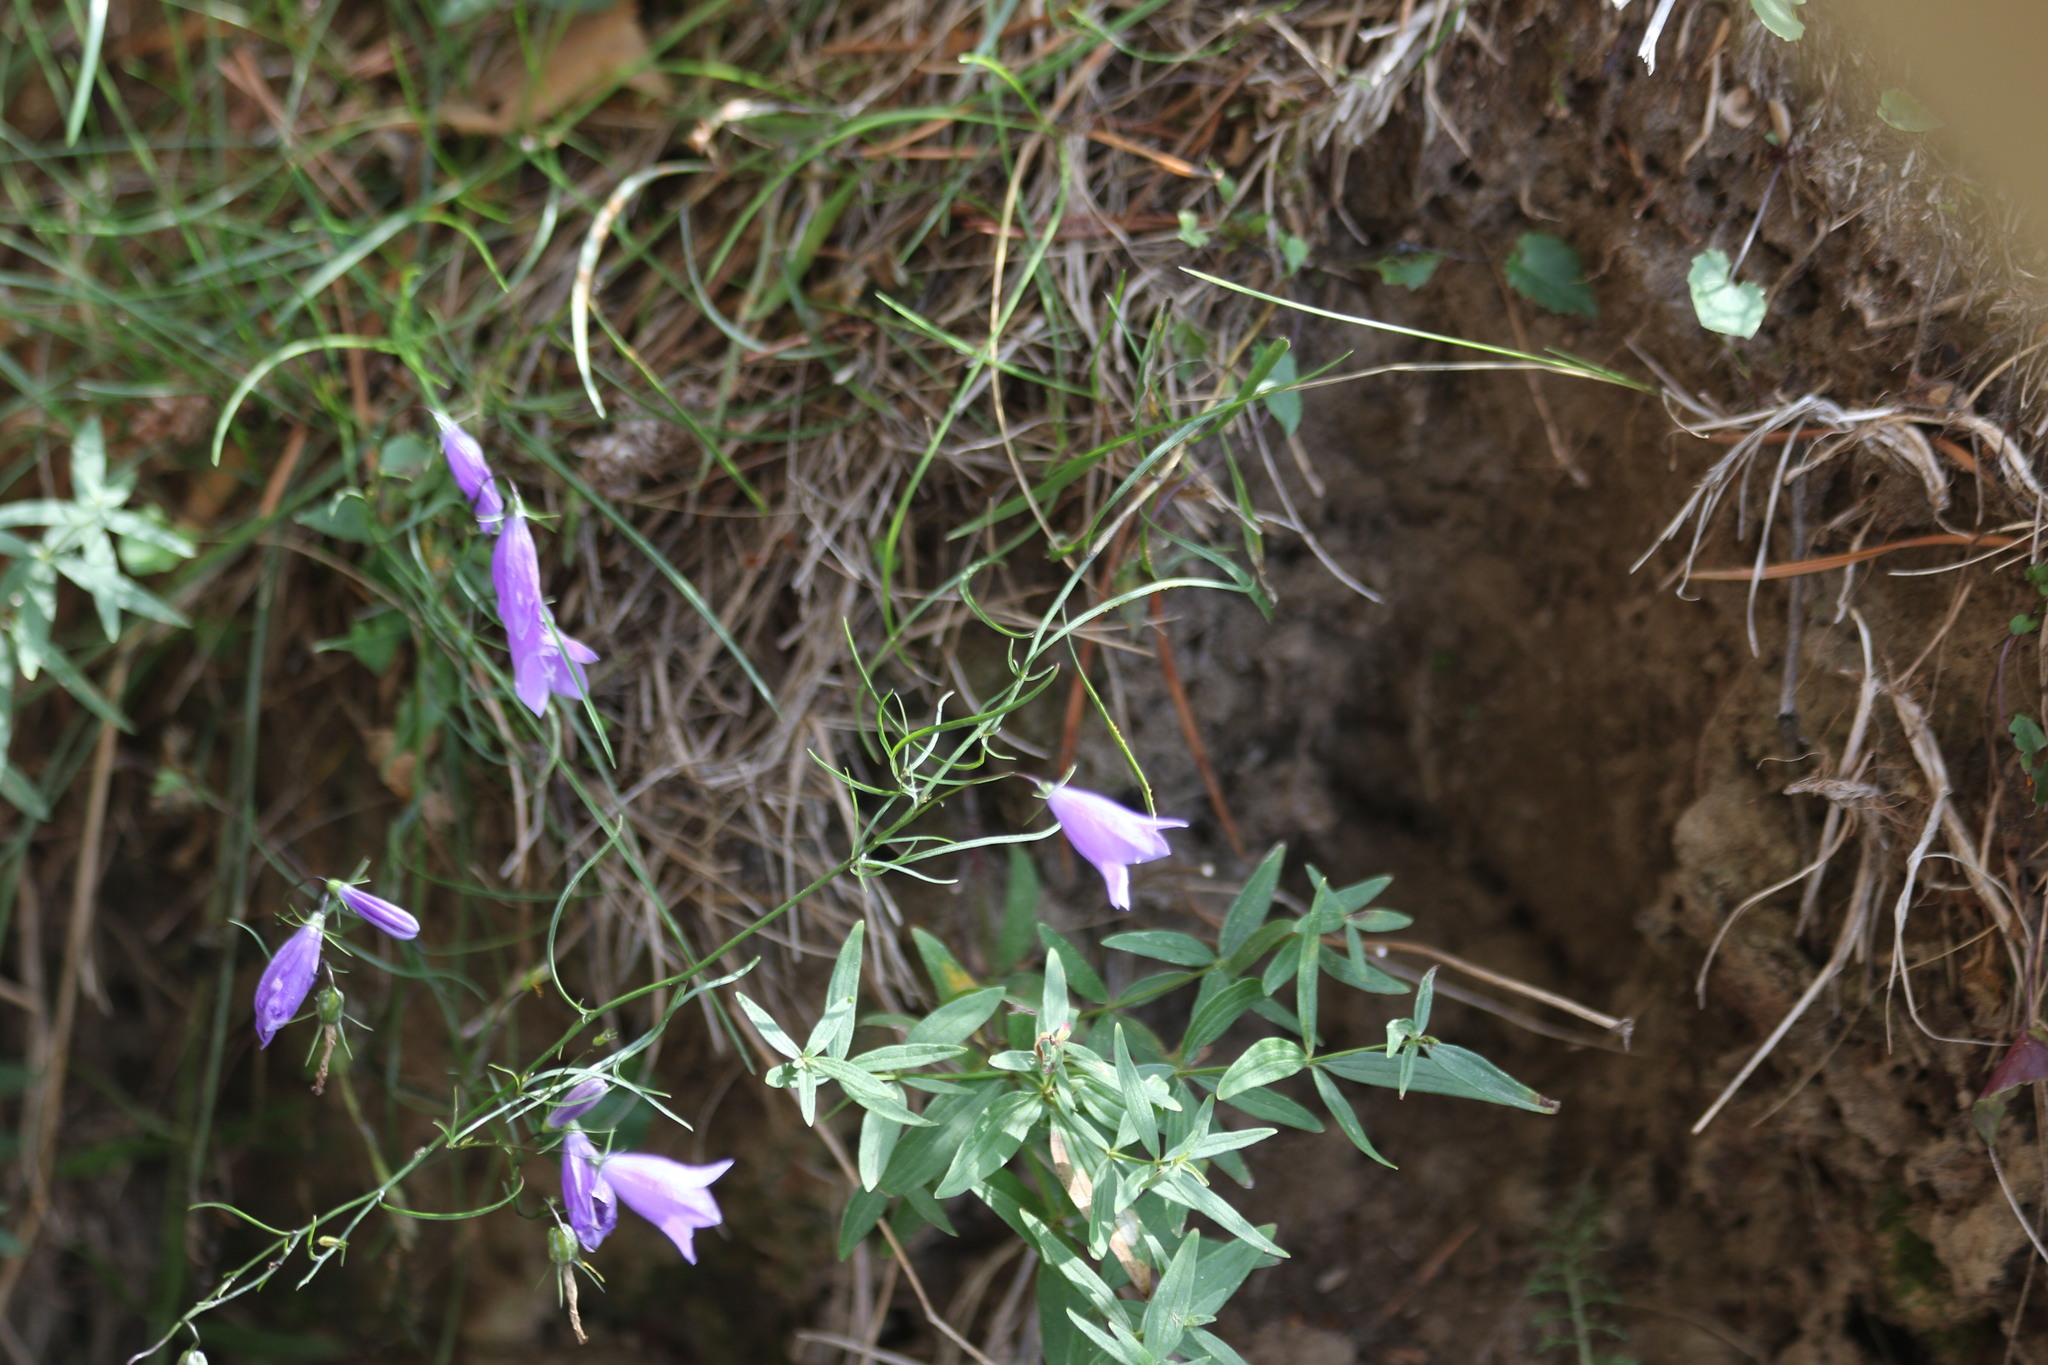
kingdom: Plantae
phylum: Tracheophyta
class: Magnoliopsida
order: Asterales
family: Campanulaceae
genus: Campanula
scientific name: Campanula rotundifolia
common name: Harebell
